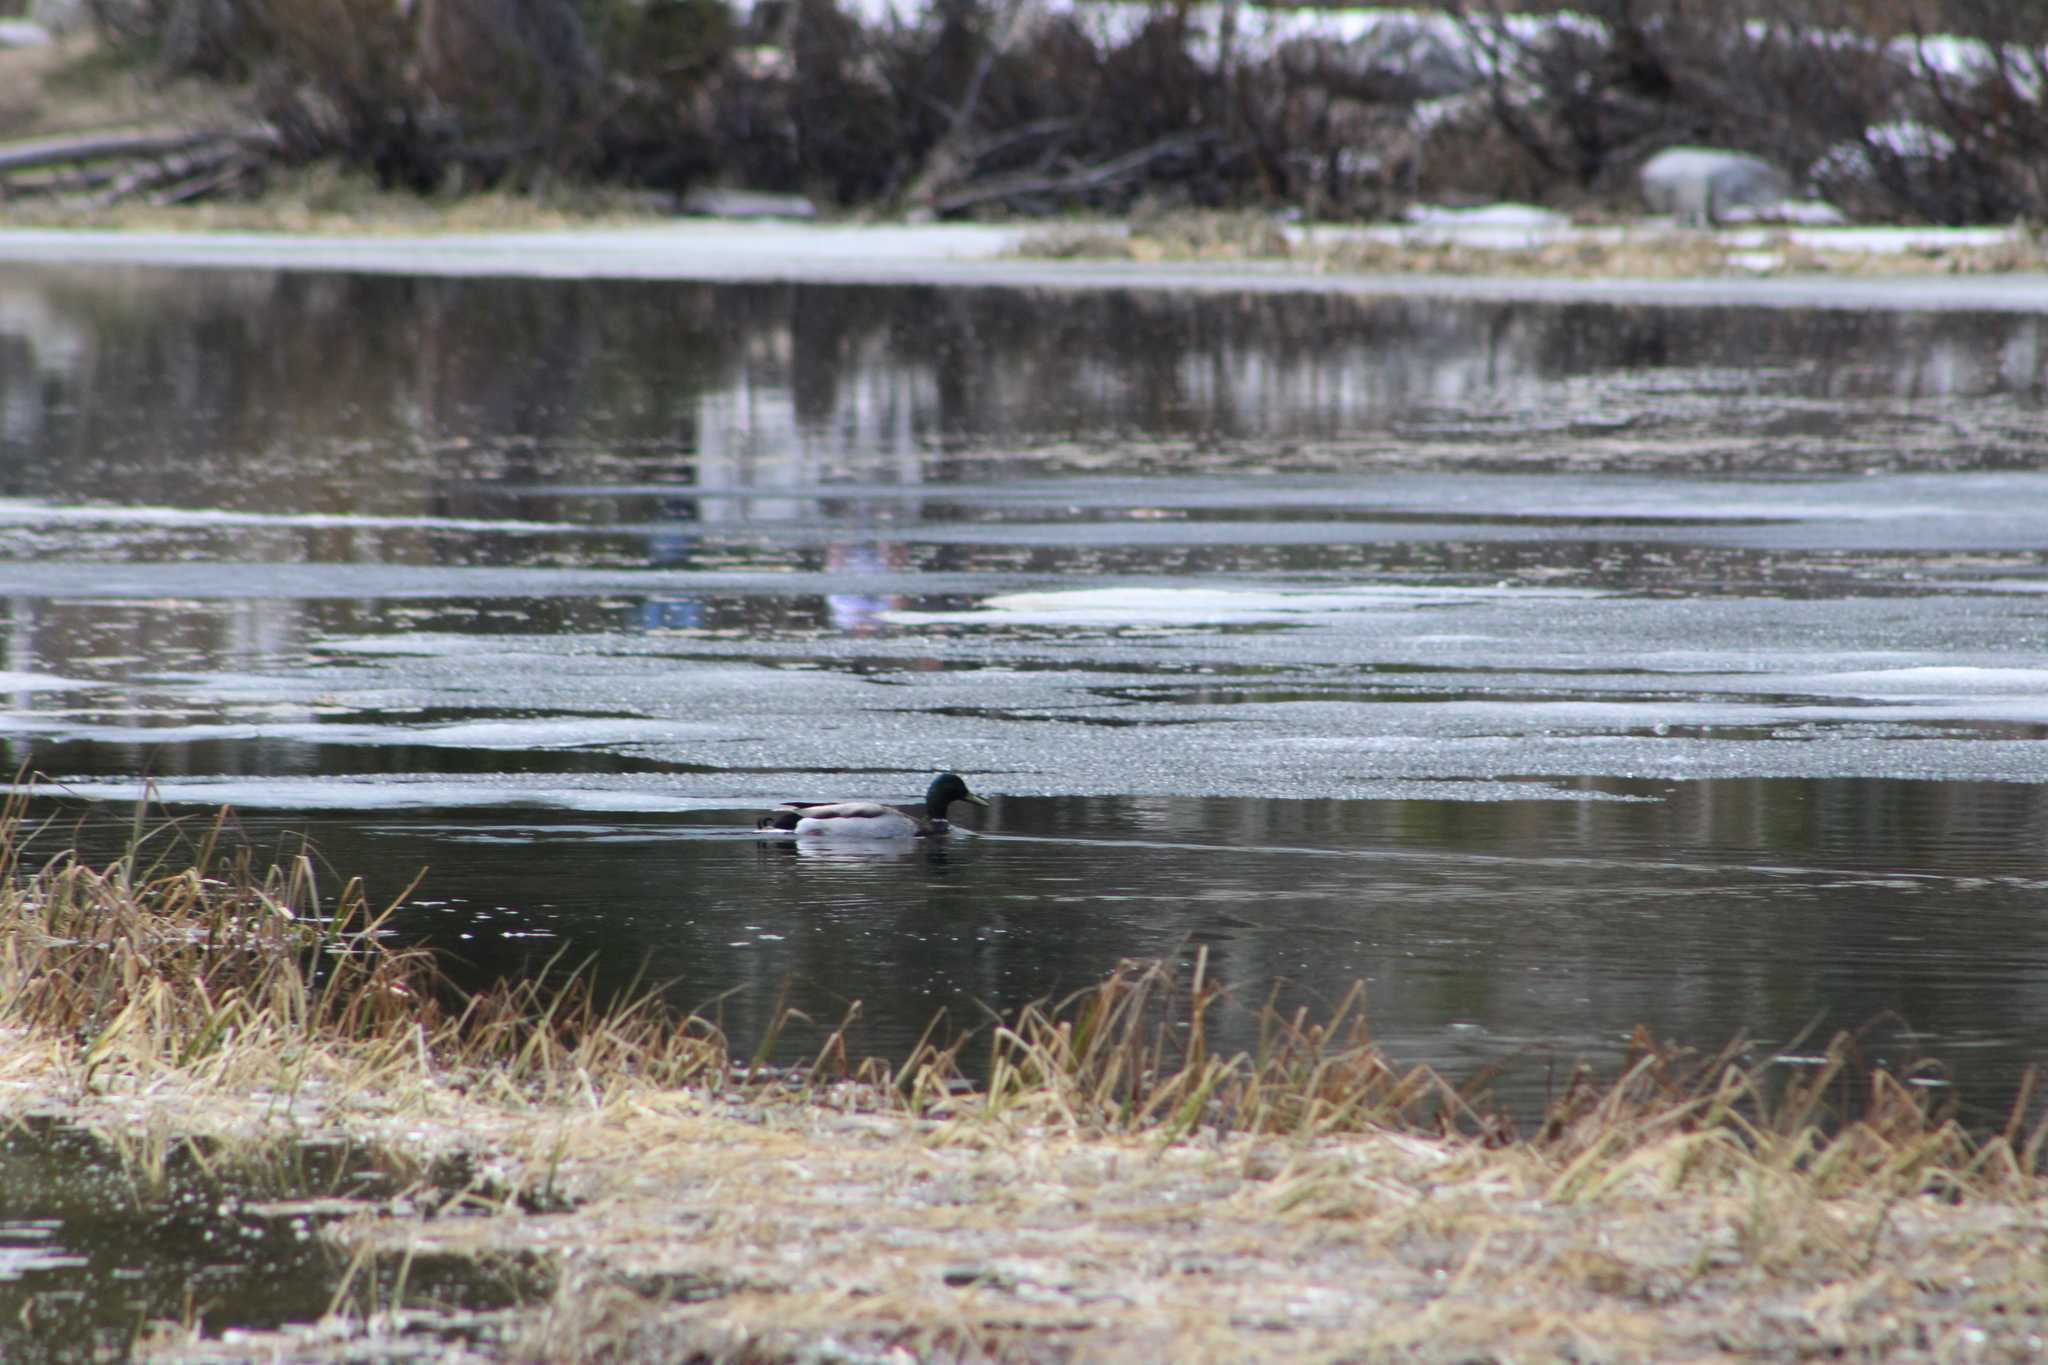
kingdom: Animalia
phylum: Chordata
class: Aves
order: Anseriformes
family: Anatidae
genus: Anas
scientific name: Anas platyrhynchos
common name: Mallard
